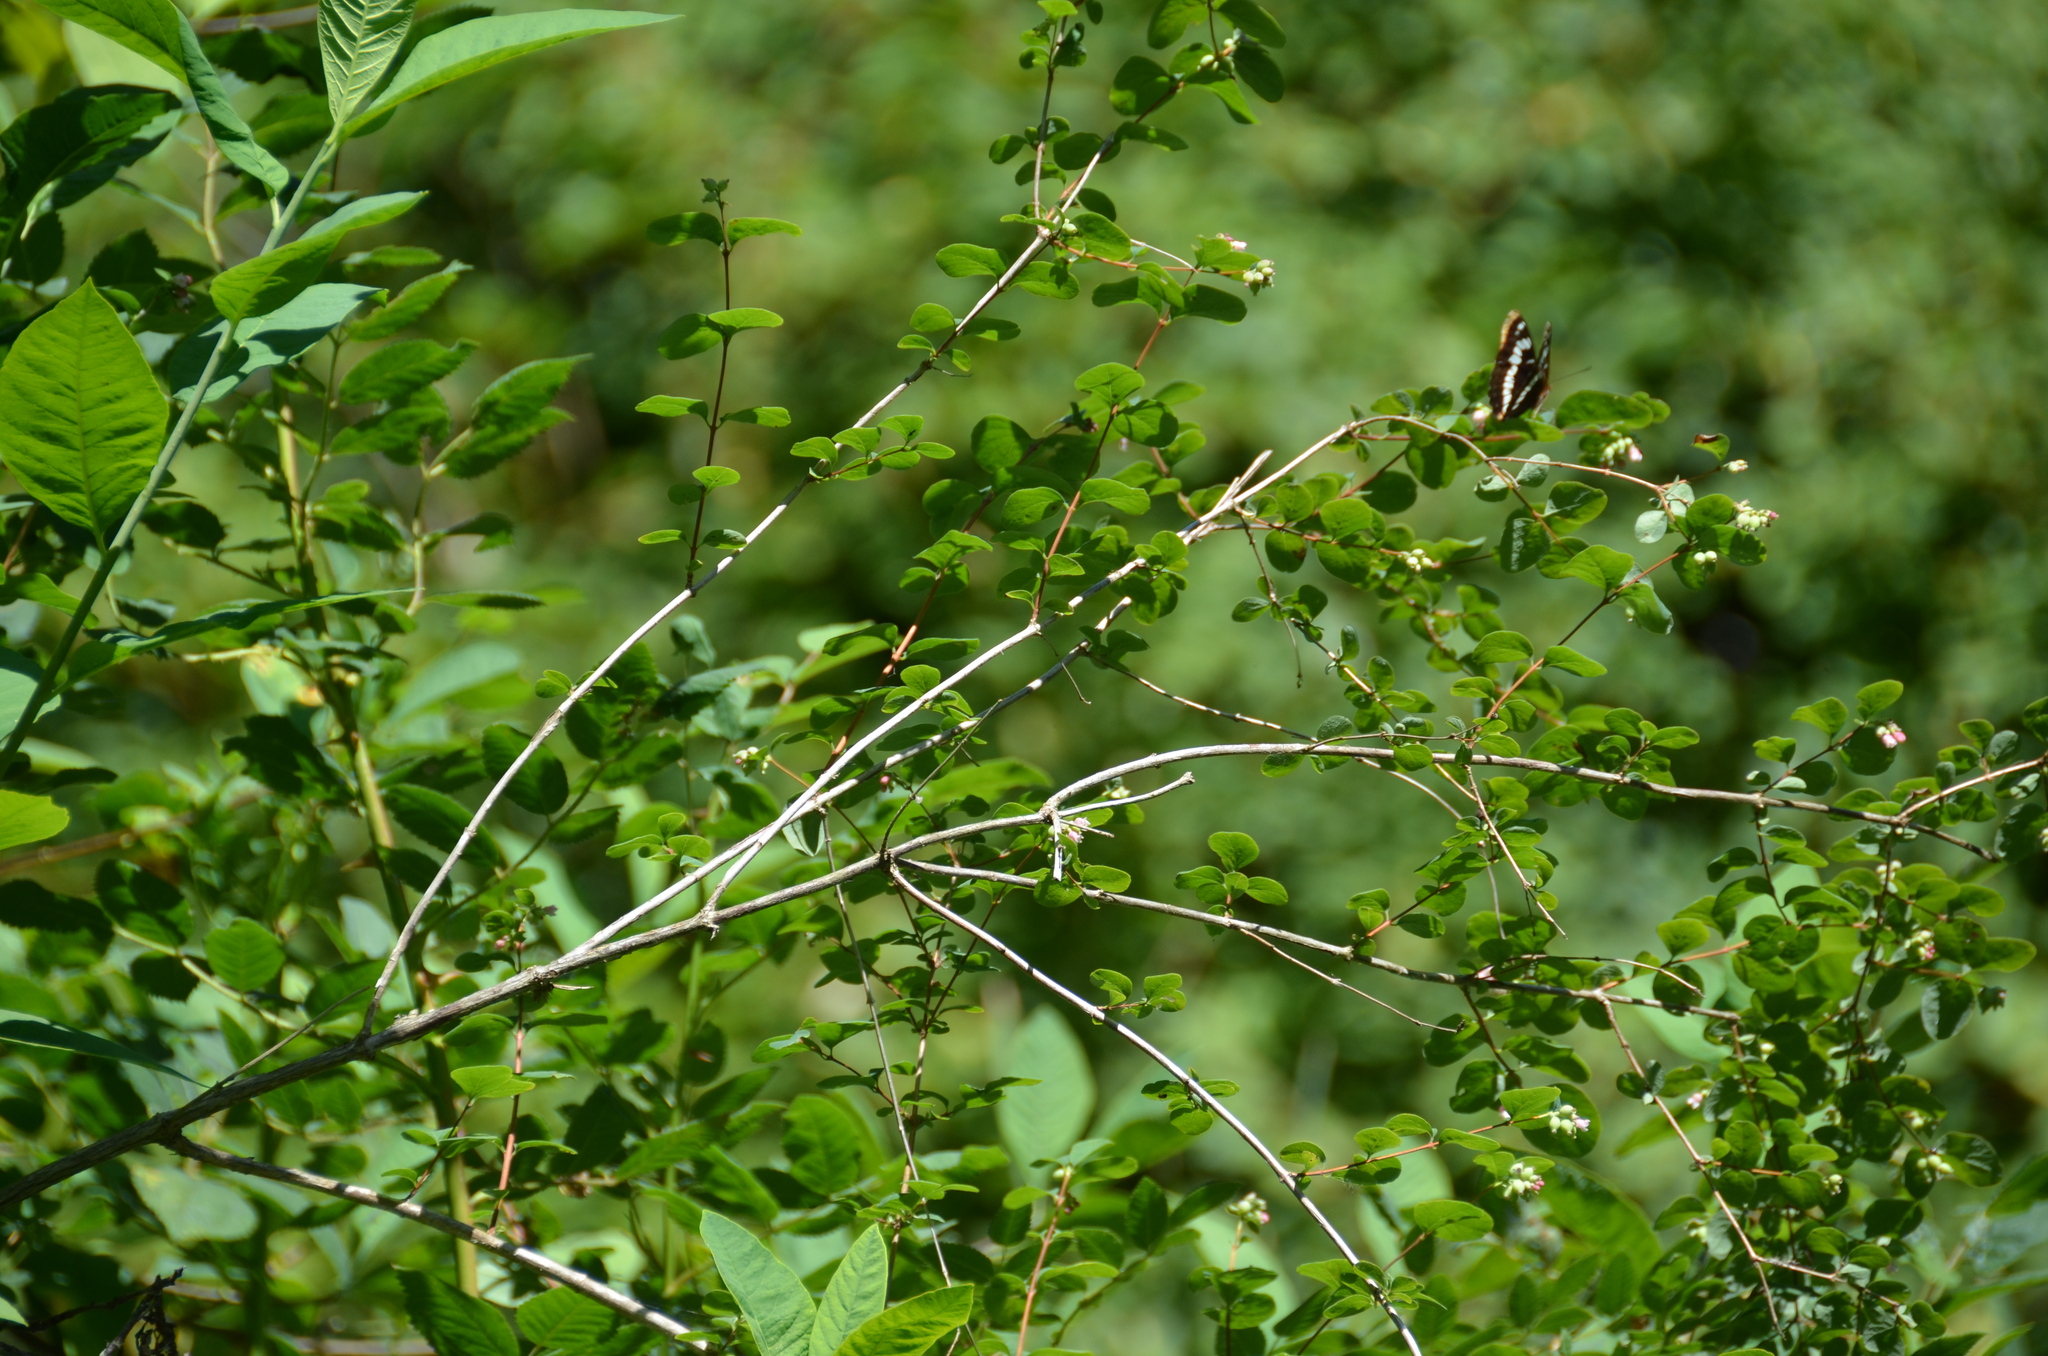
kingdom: Animalia
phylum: Arthropoda
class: Insecta
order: Lepidoptera
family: Nymphalidae
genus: Limenitis
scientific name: Limenitis lorquini
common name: Lorquin's admiral
